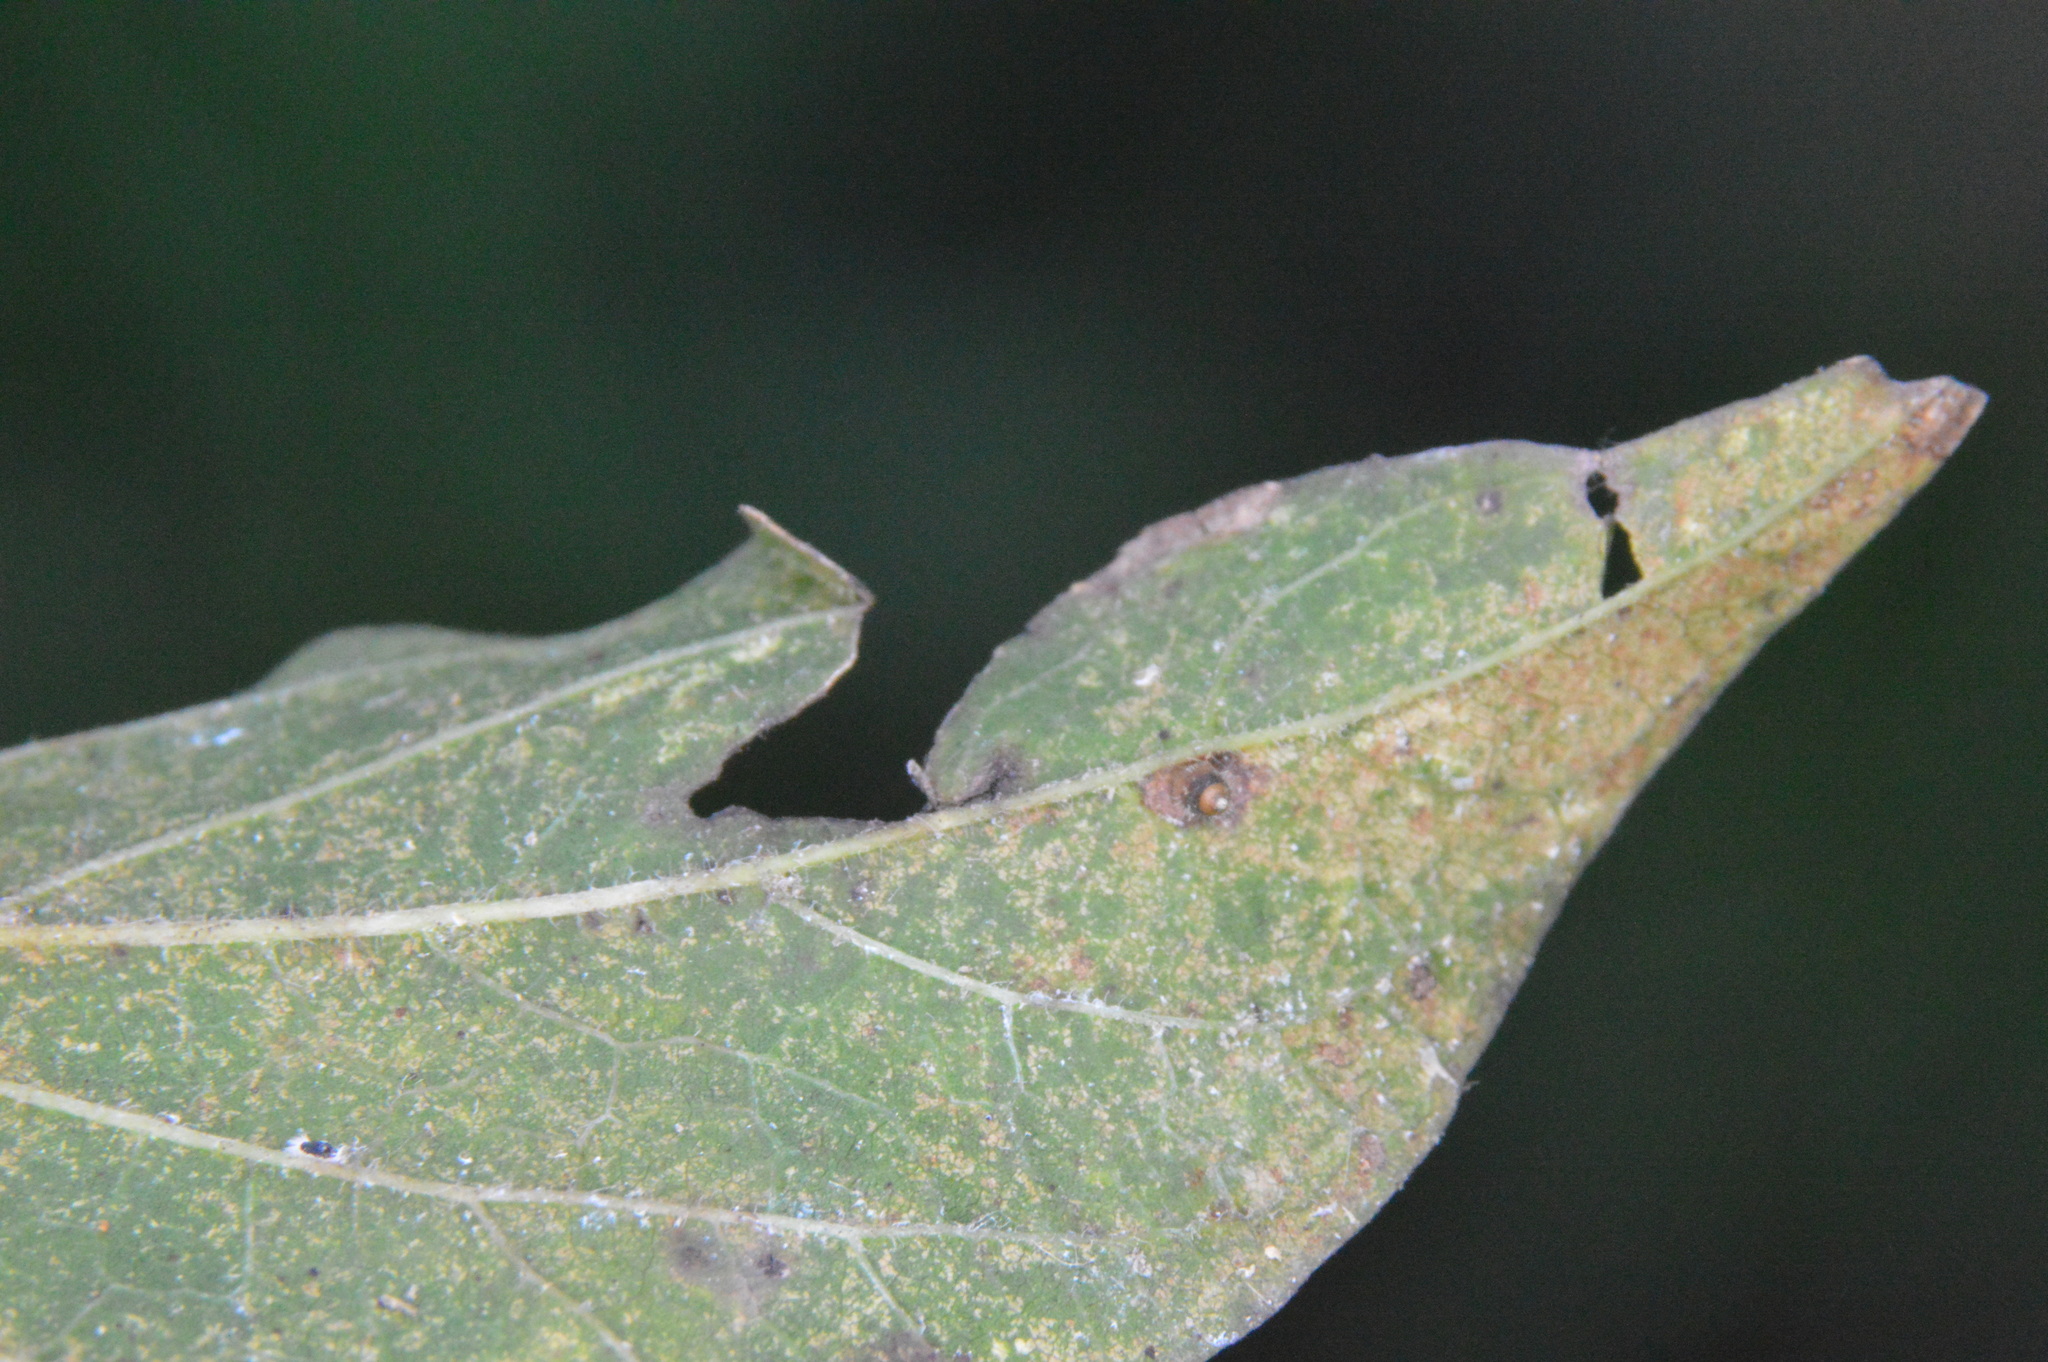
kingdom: Animalia
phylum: Arthropoda
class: Insecta
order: Diptera
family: Cecidomyiidae
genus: Celticecis
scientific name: Celticecis cupiformis
